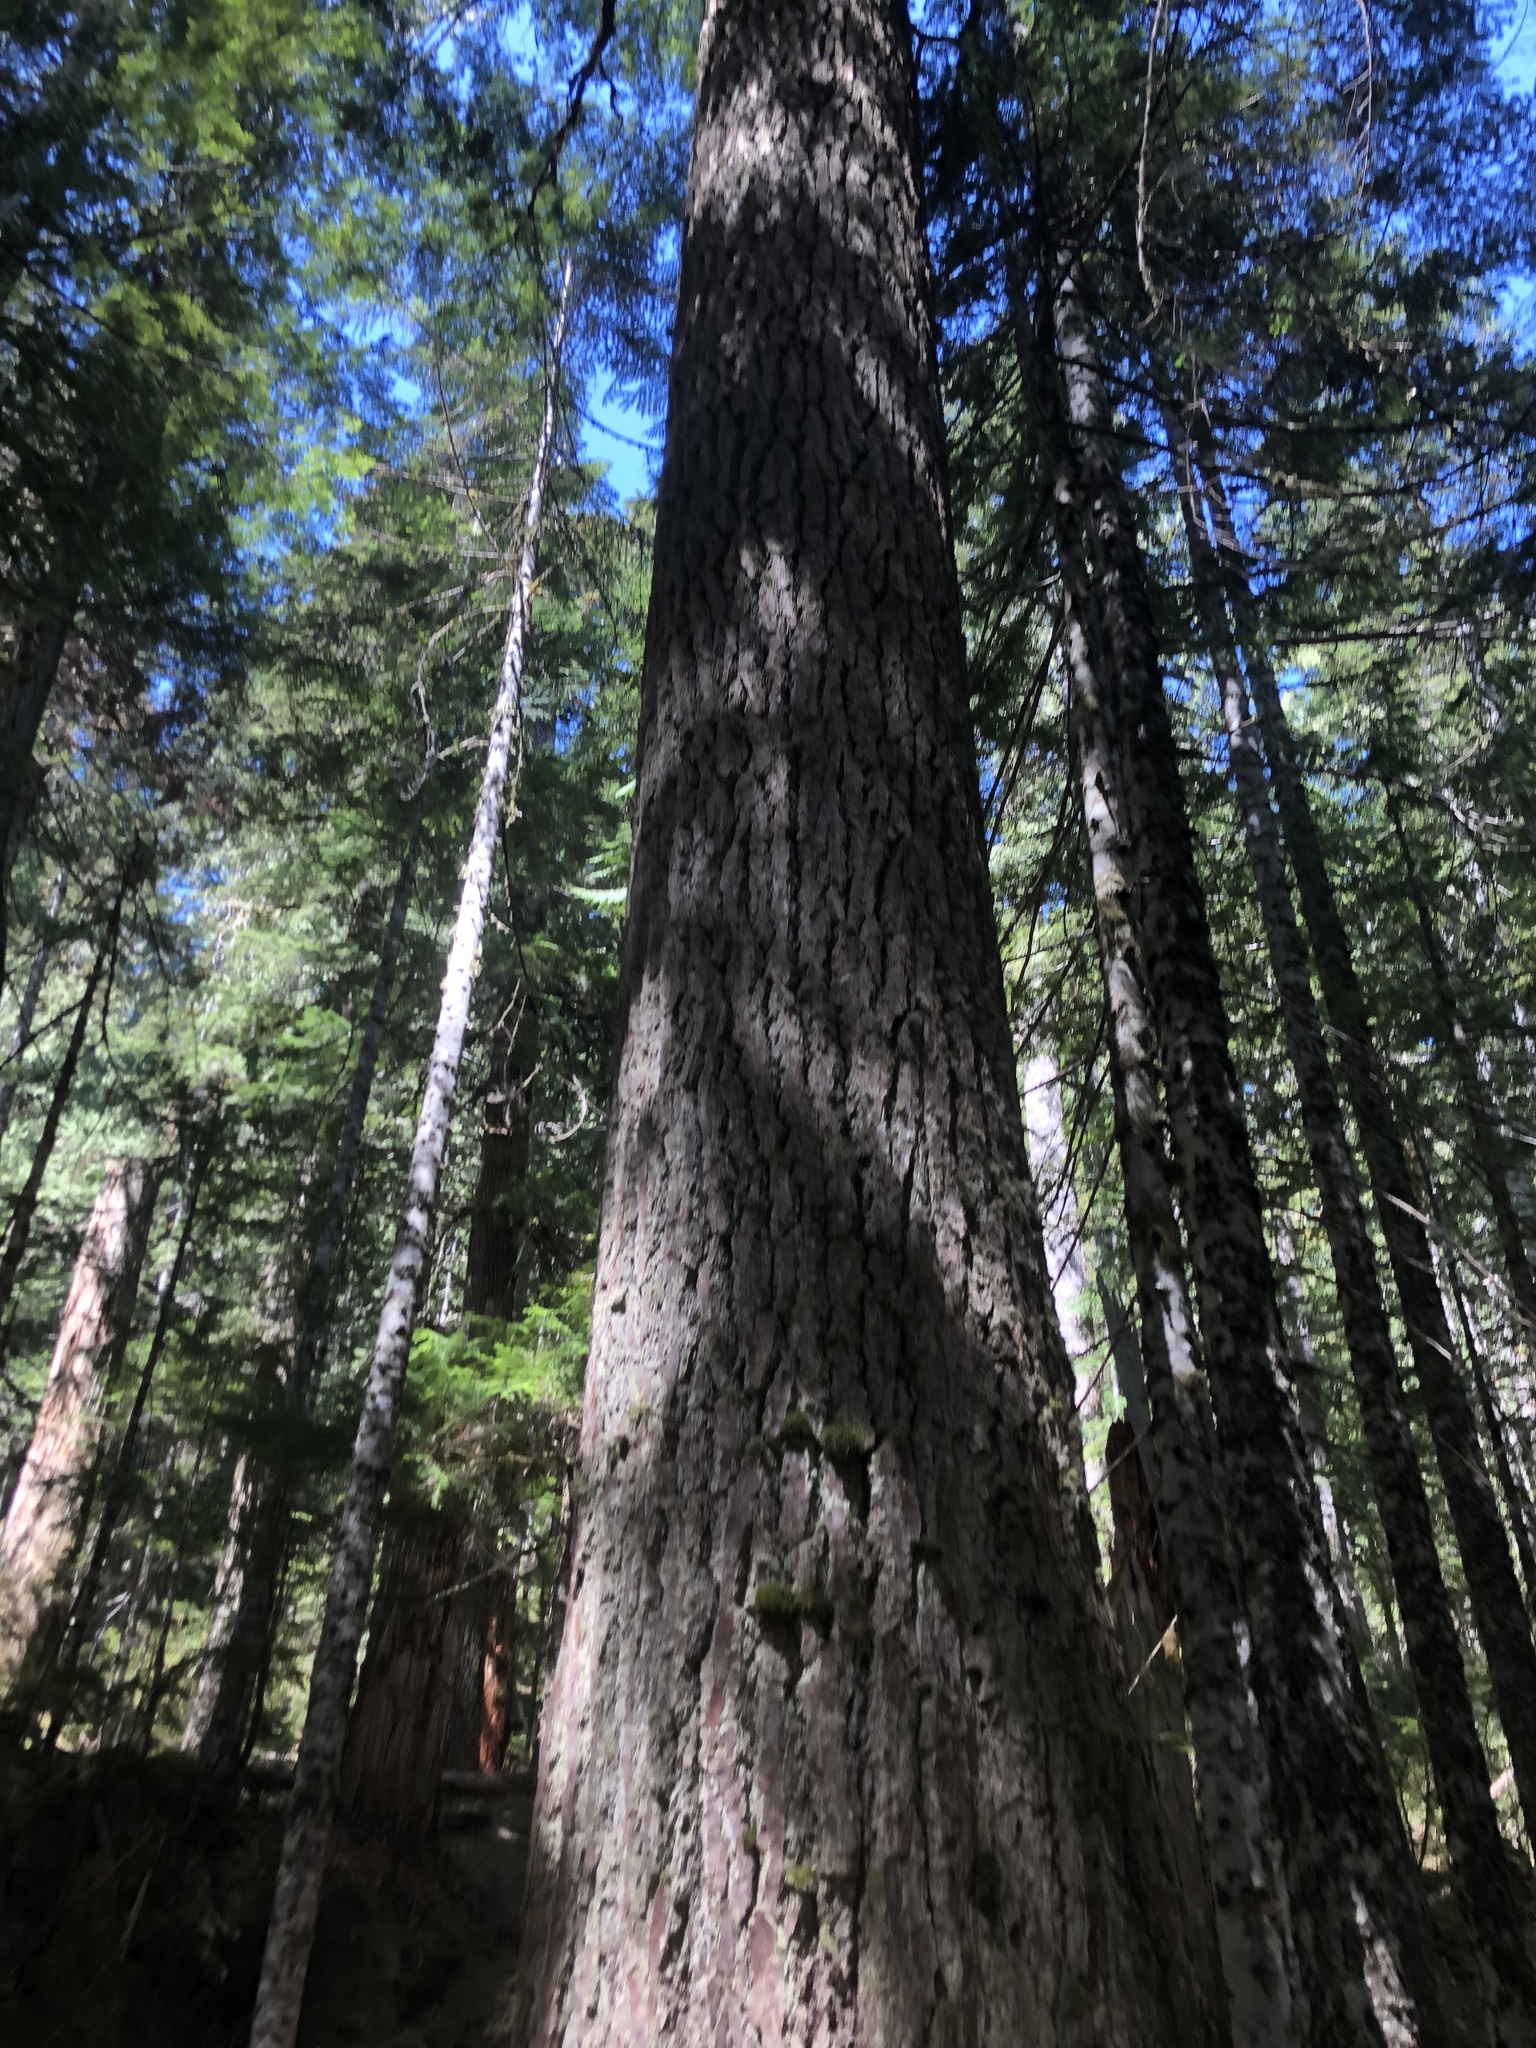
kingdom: Plantae
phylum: Tracheophyta
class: Pinopsida
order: Pinales
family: Pinaceae
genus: Tsuga
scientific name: Tsuga heterophylla
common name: Western hemlock
